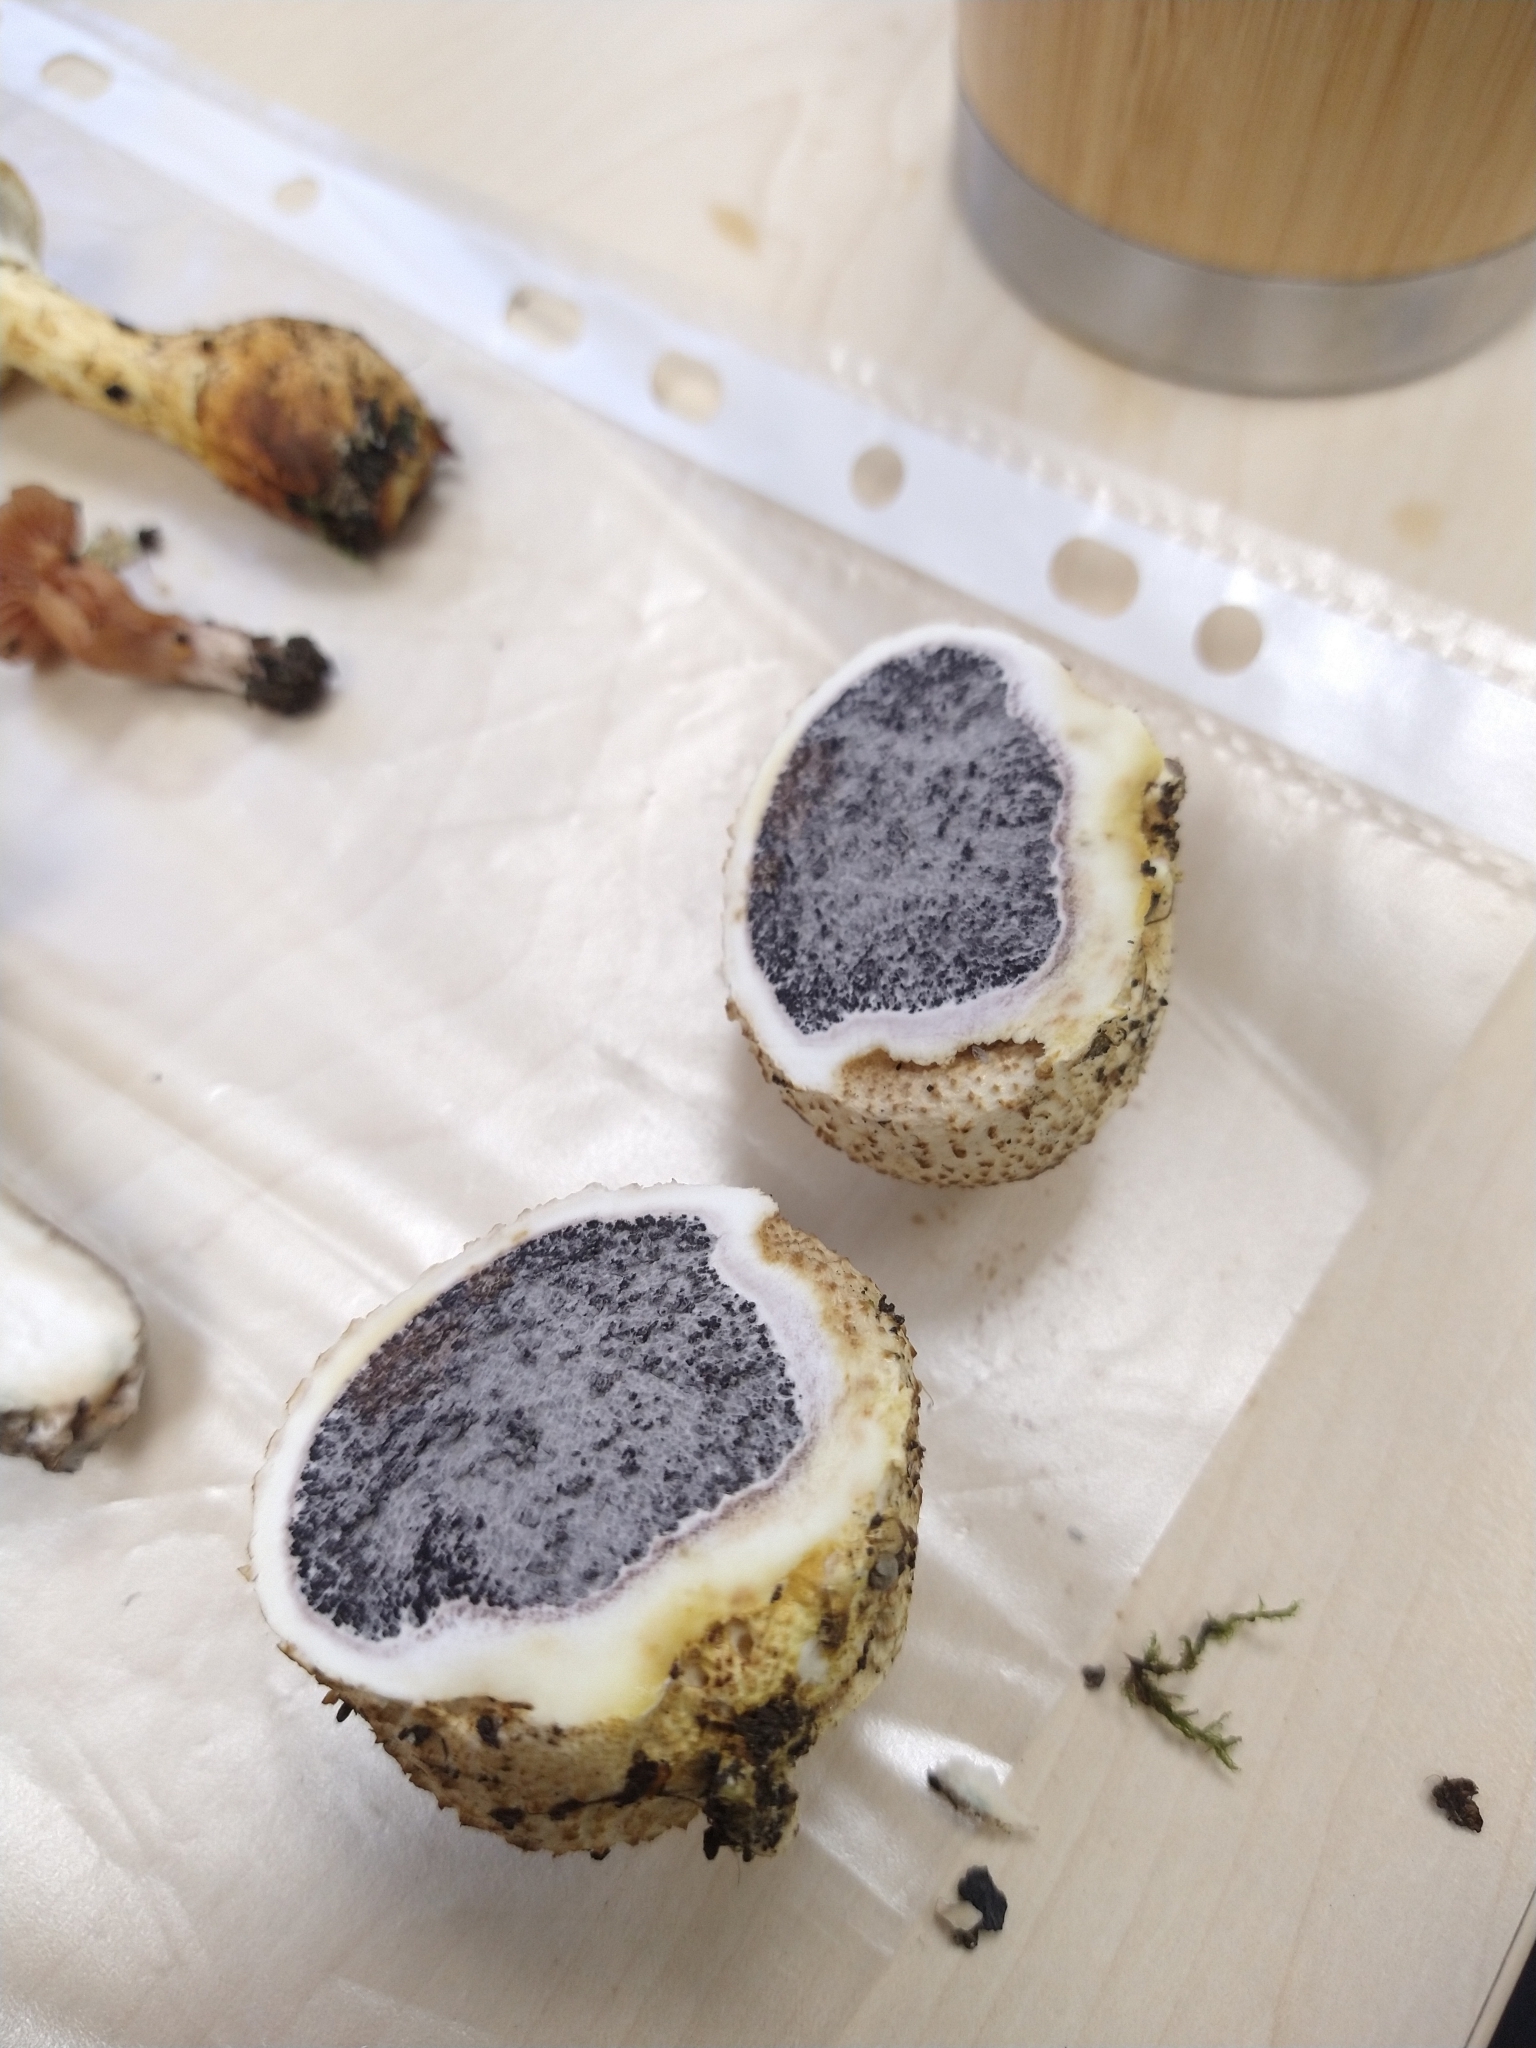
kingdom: Fungi
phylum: Basidiomycota
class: Agaricomycetes
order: Boletales
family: Sclerodermataceae
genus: Scleroderma
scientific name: Scleroderma citrinum
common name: Common earthball
